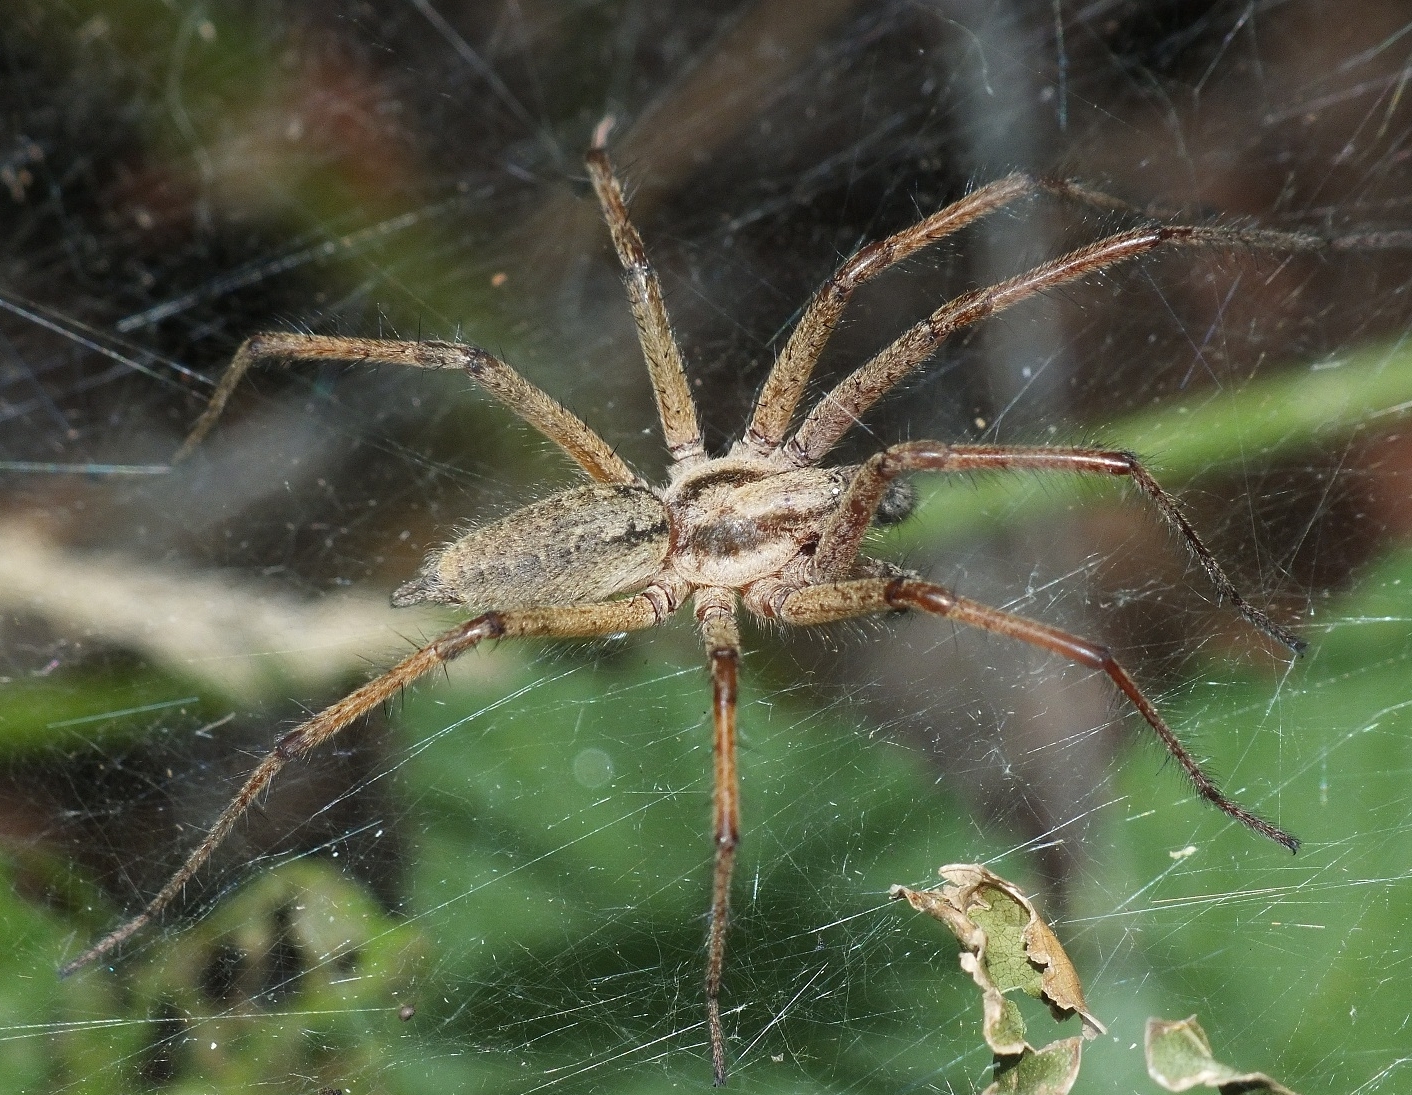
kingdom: Animalia
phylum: Arthropoda
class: Arachnida
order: Araneae
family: Agelenidae
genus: Agelena
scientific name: Agelena labyrinthica
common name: Labyrinth spider
